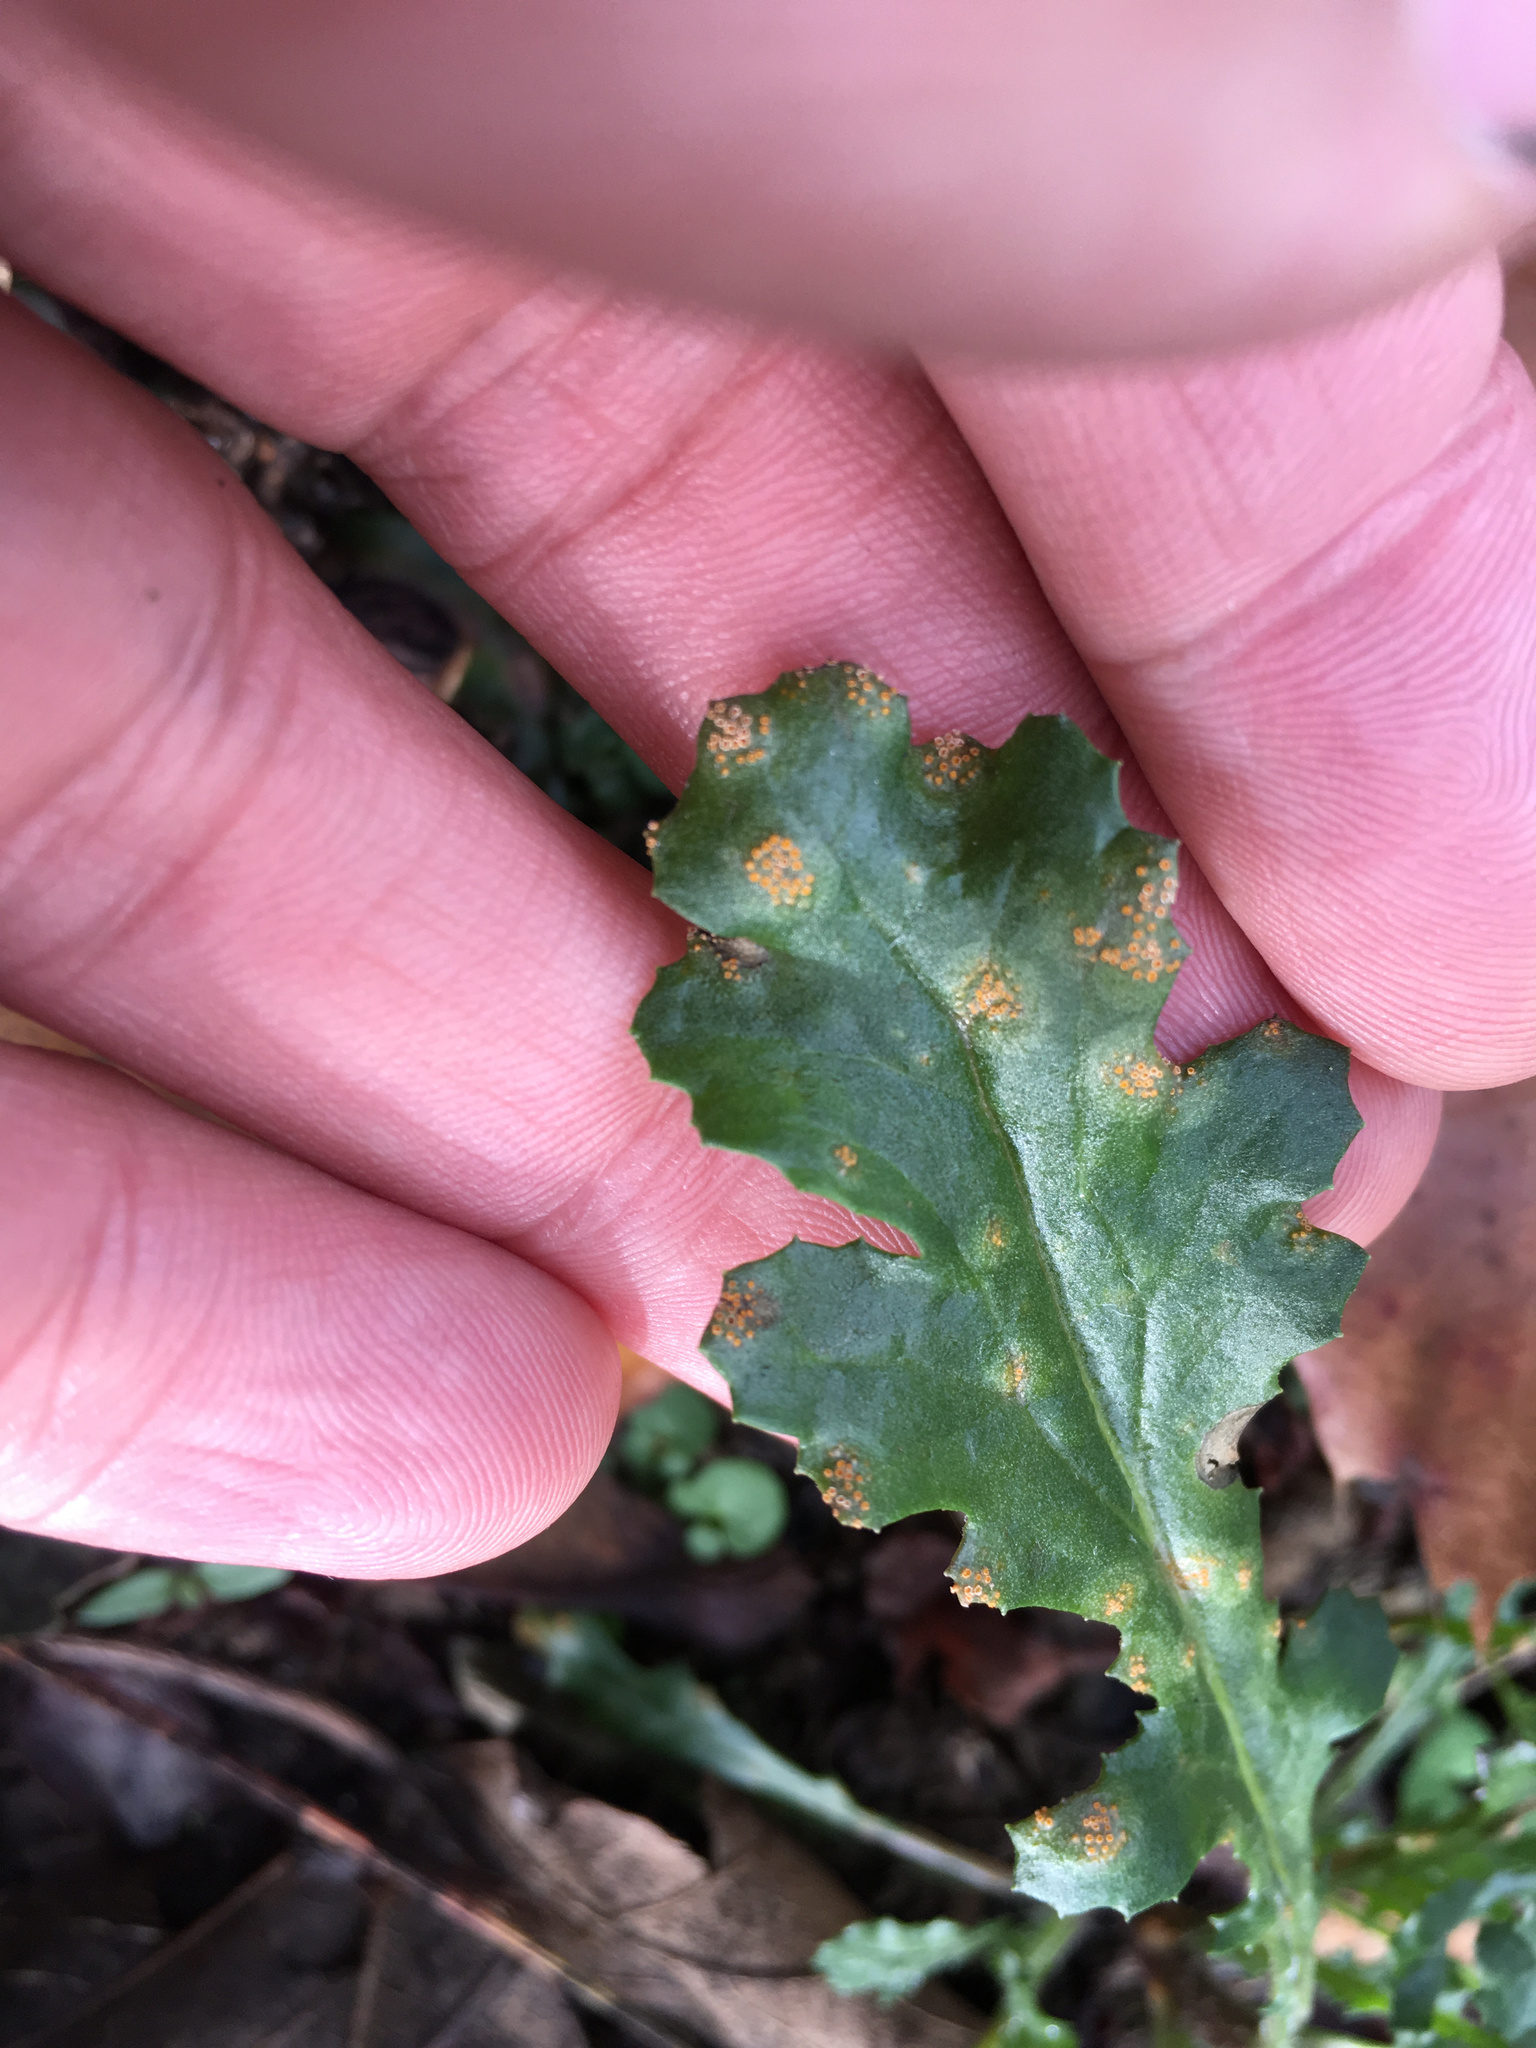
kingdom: Fungi
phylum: Basidiomycota
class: Pucciniomycetes
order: Pucciniales
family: Pucciniaceae
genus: Puccinia
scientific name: Puccinia lagenophorae
